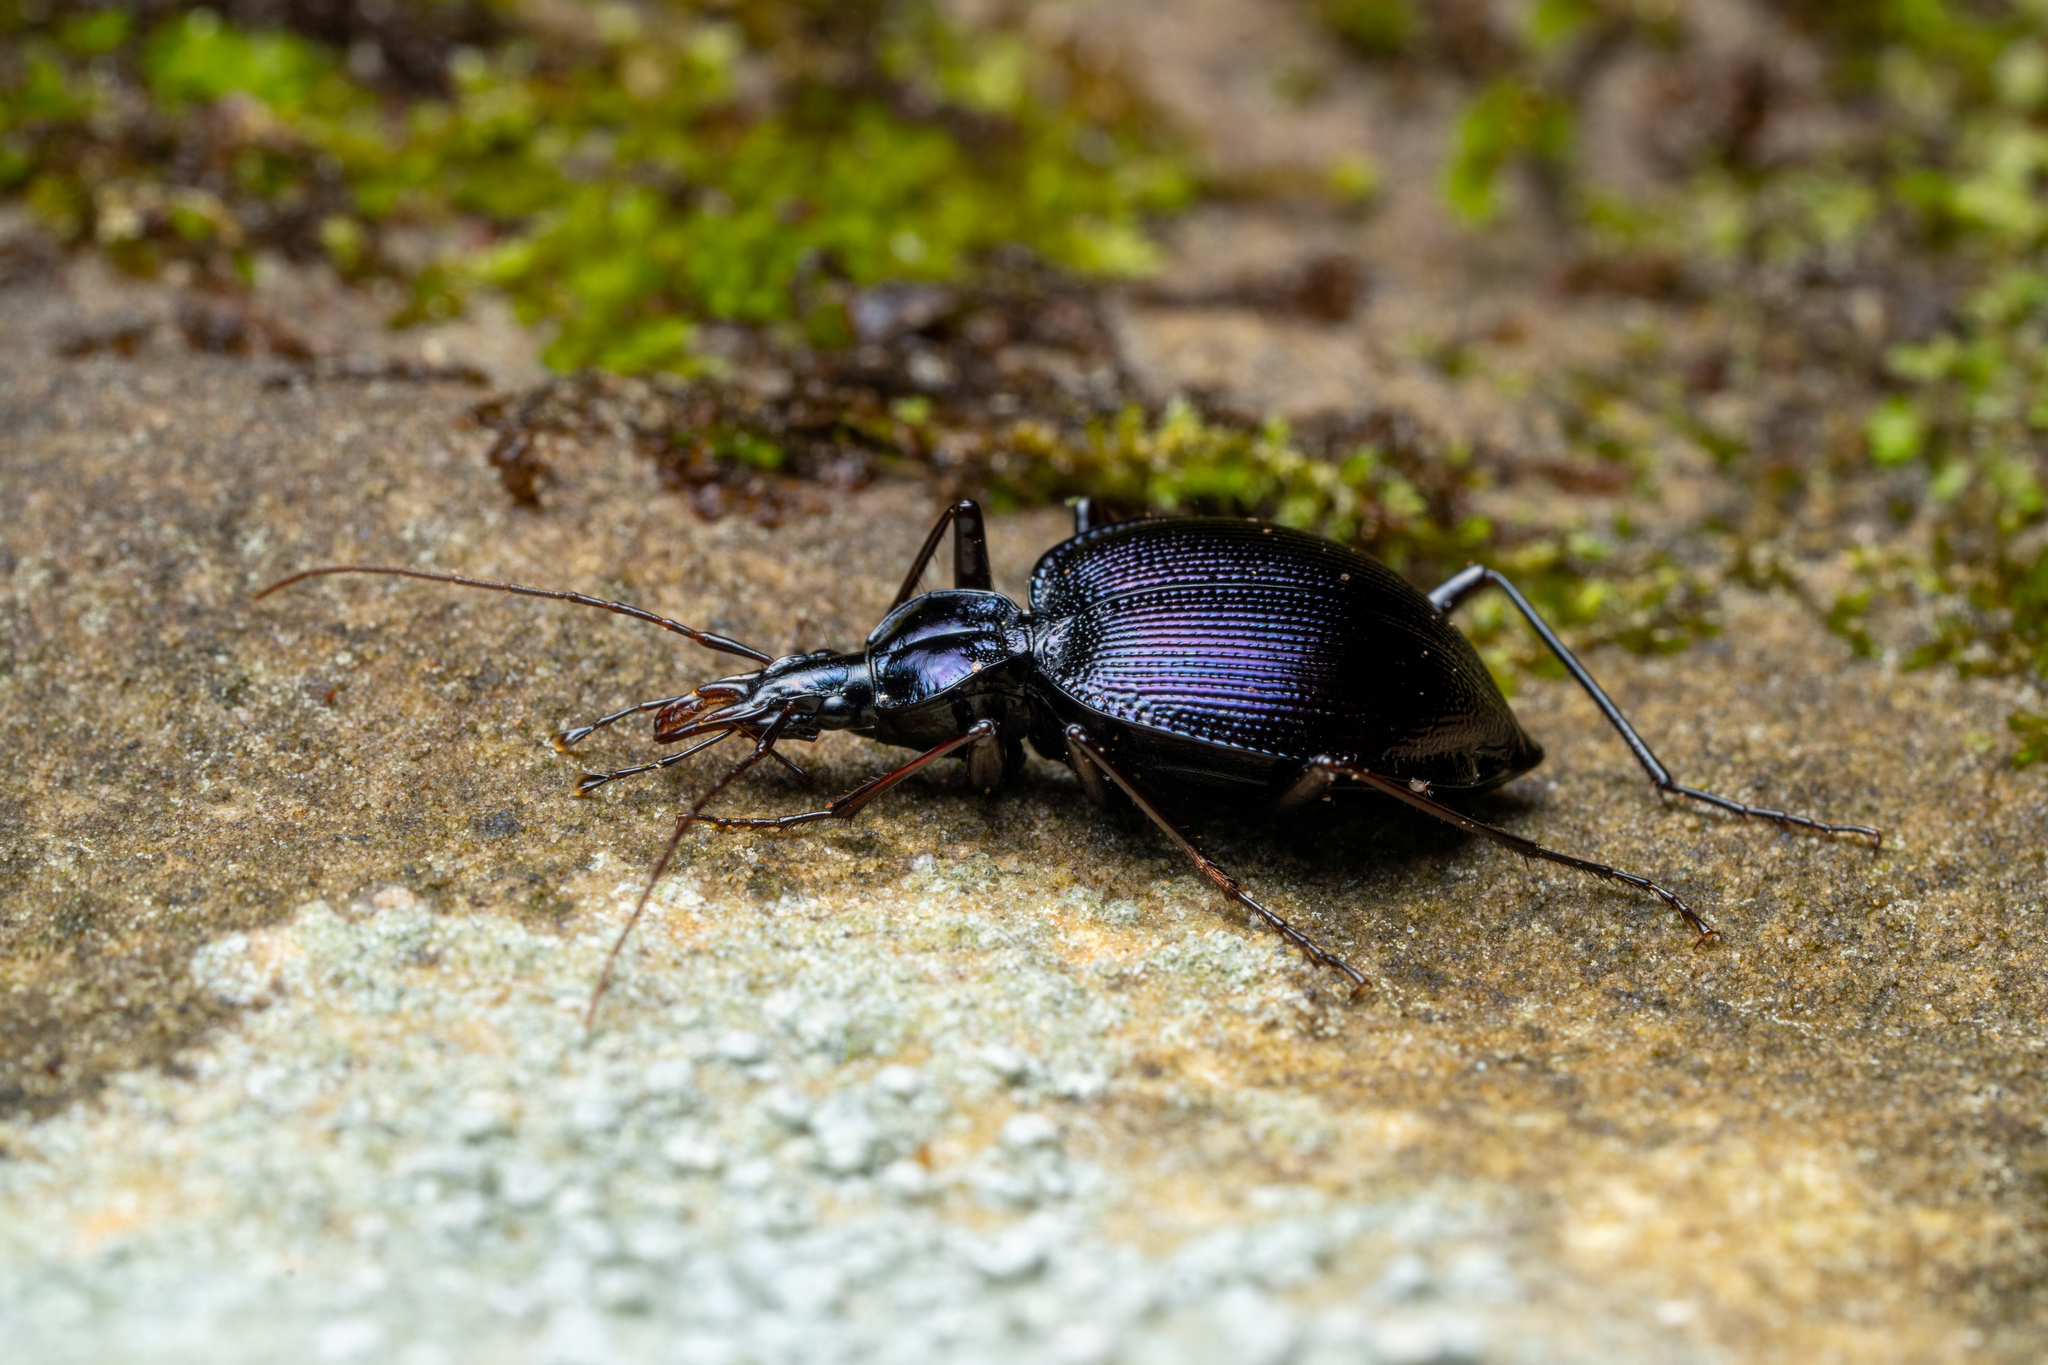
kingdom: Animalia
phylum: Arthropoda
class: Insecta
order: Coleoptera
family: Carabidae
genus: Scaphinotus
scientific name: Scaphinotus andrewsii
